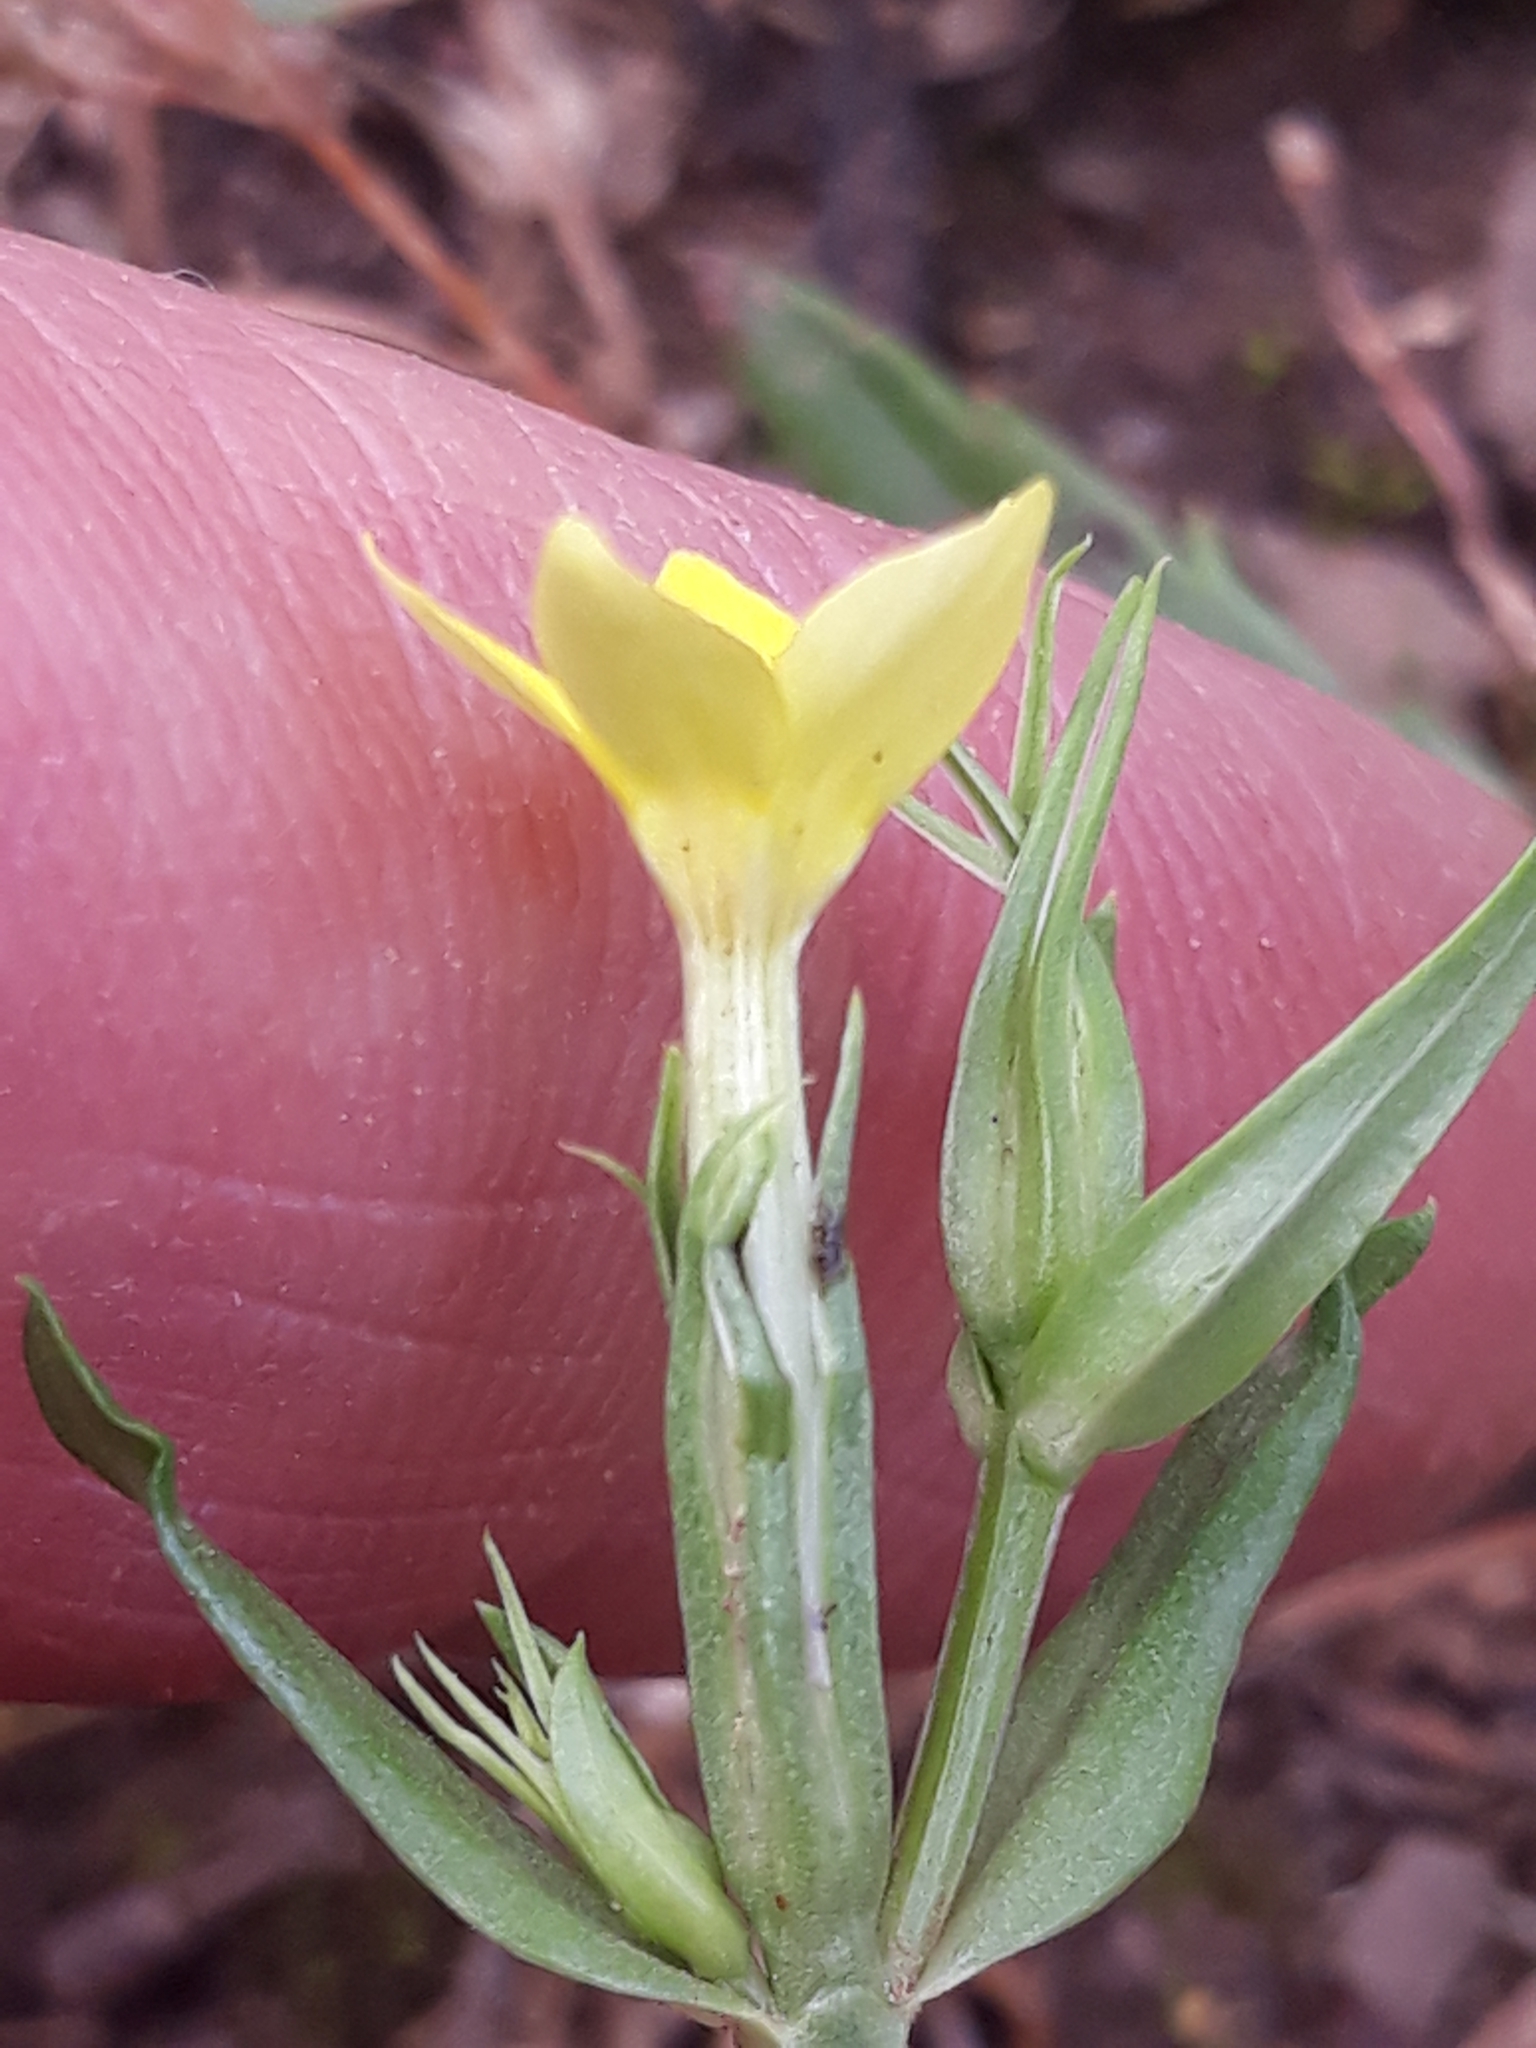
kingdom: Plantae
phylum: Tracheophyta
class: Magnoliopsida
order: Gentianales
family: Gentianaceae
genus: Centaurium
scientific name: Centaurium maritimum
